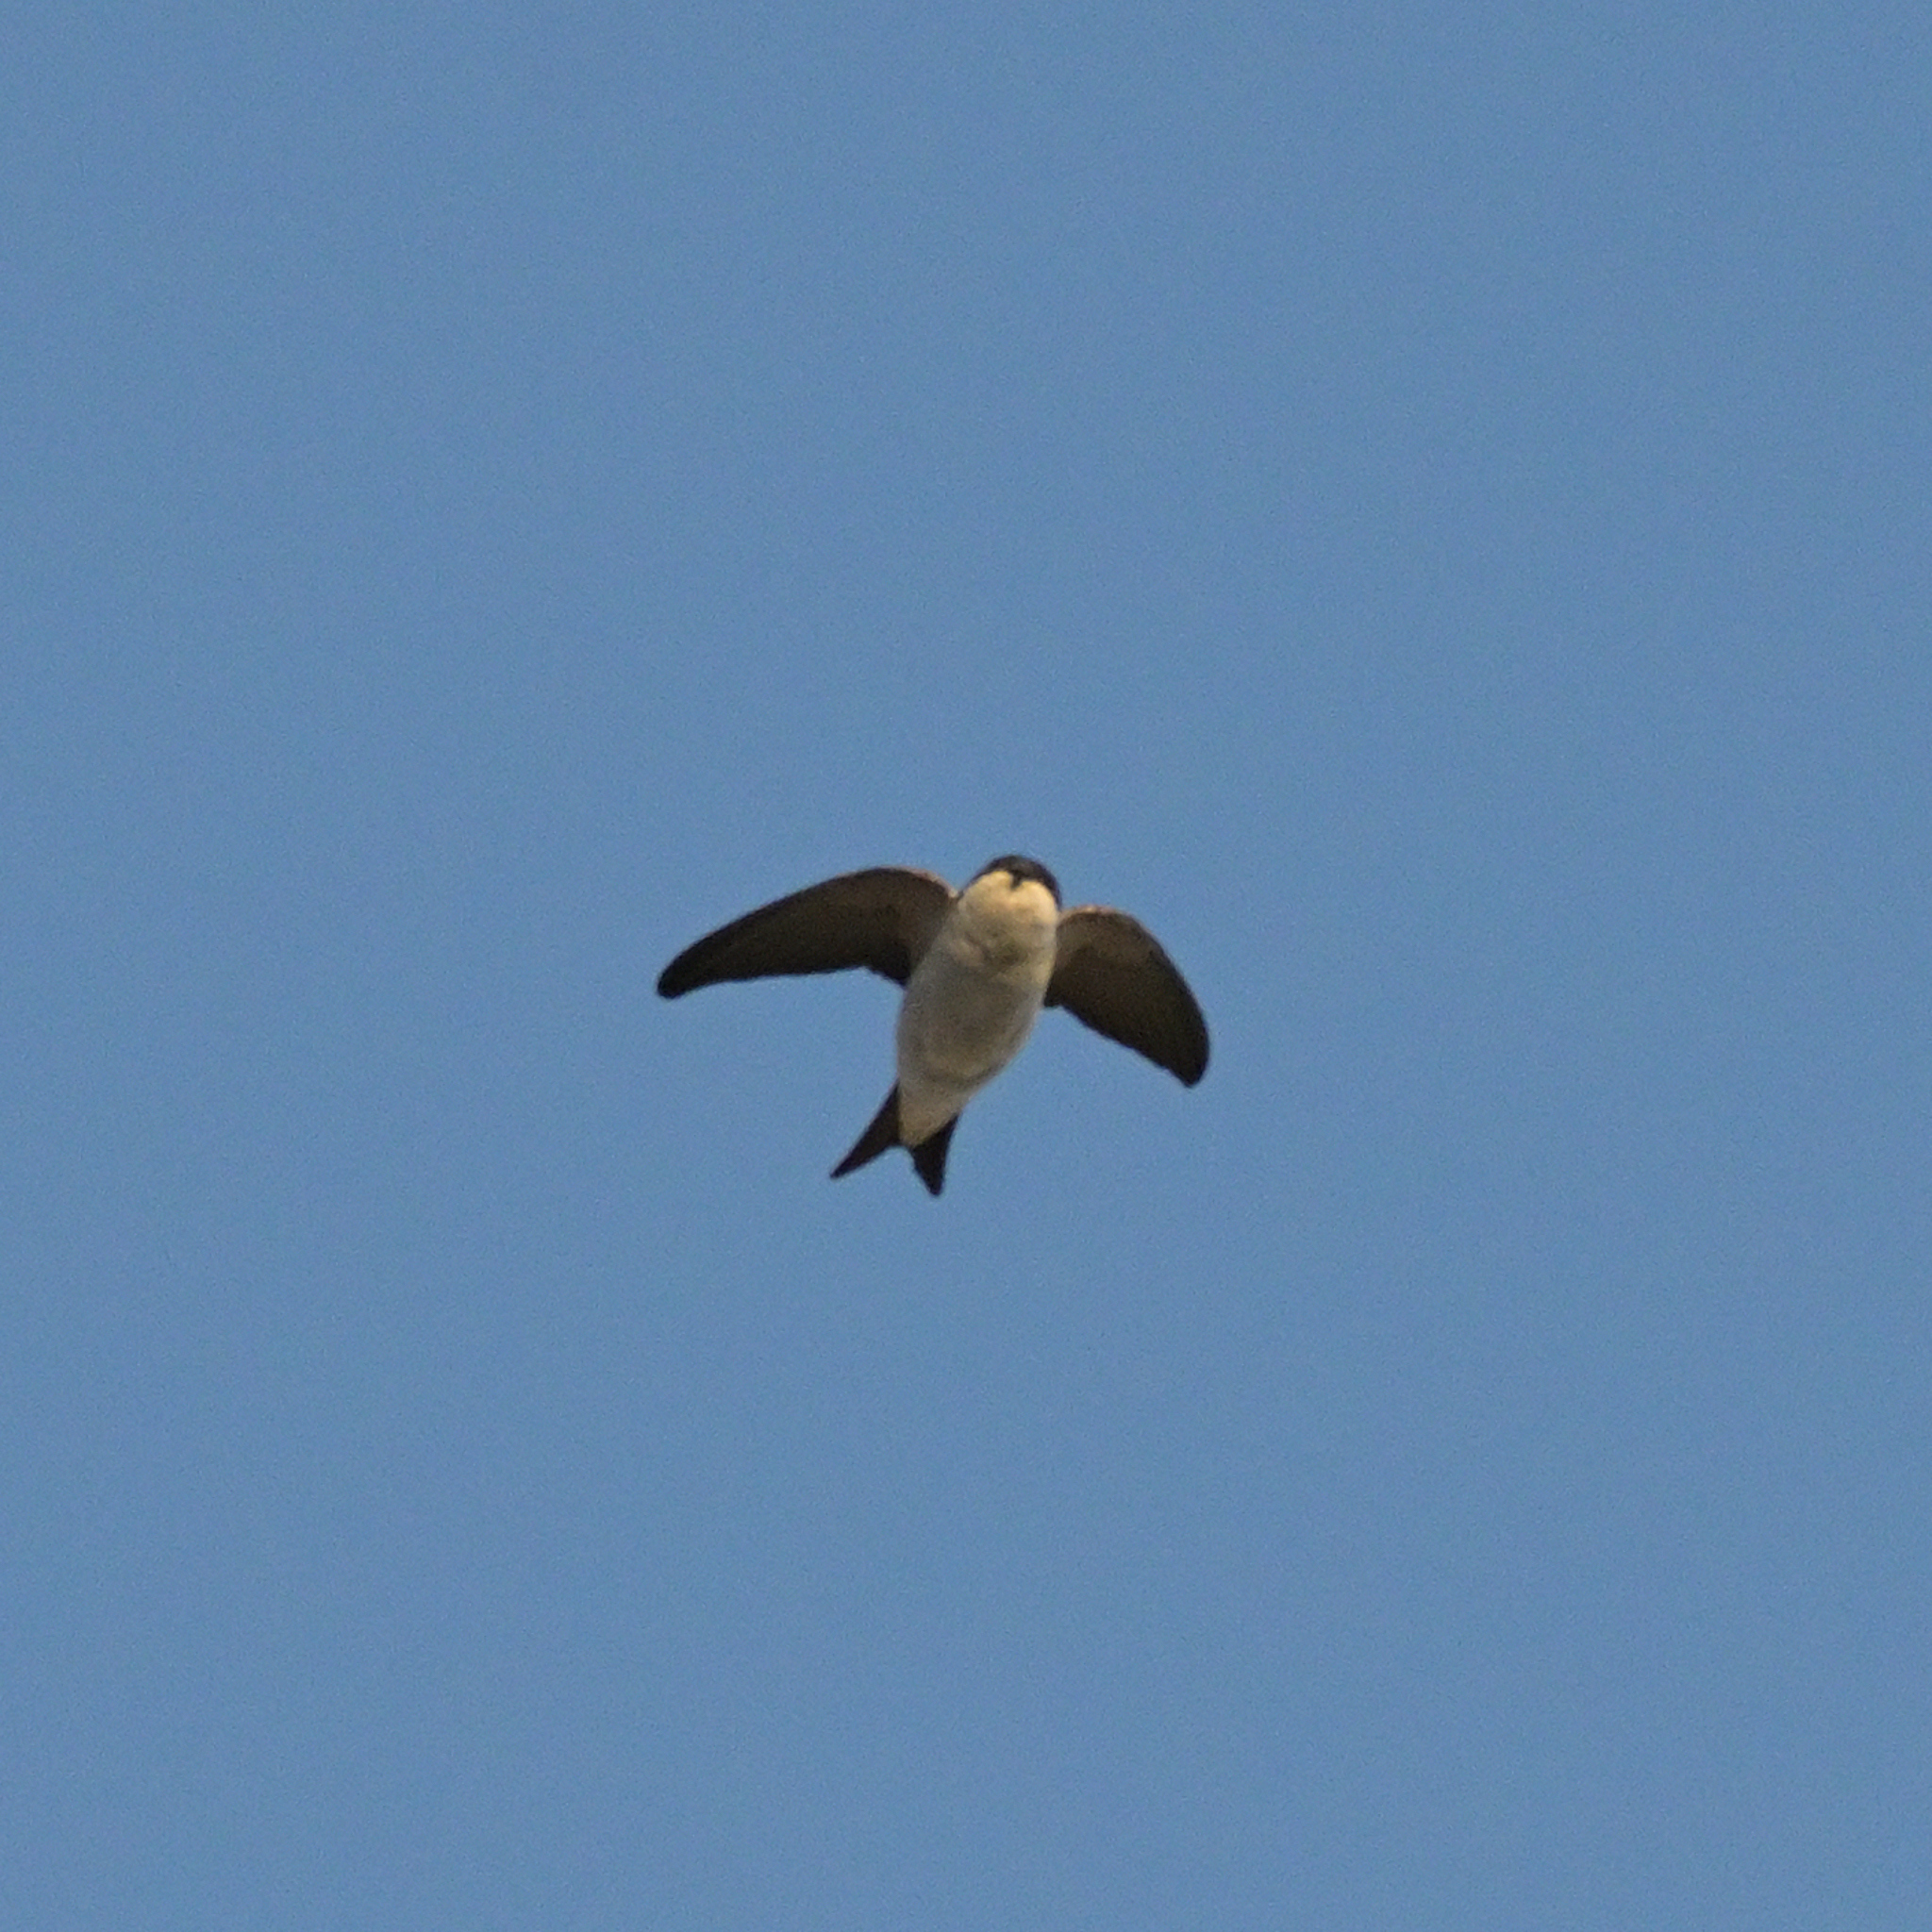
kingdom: Animalia
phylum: Chordata
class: Aves
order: Passeriformes
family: Hirundinidae
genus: Delichon
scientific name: Delichon urbicum
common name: Common house martin
